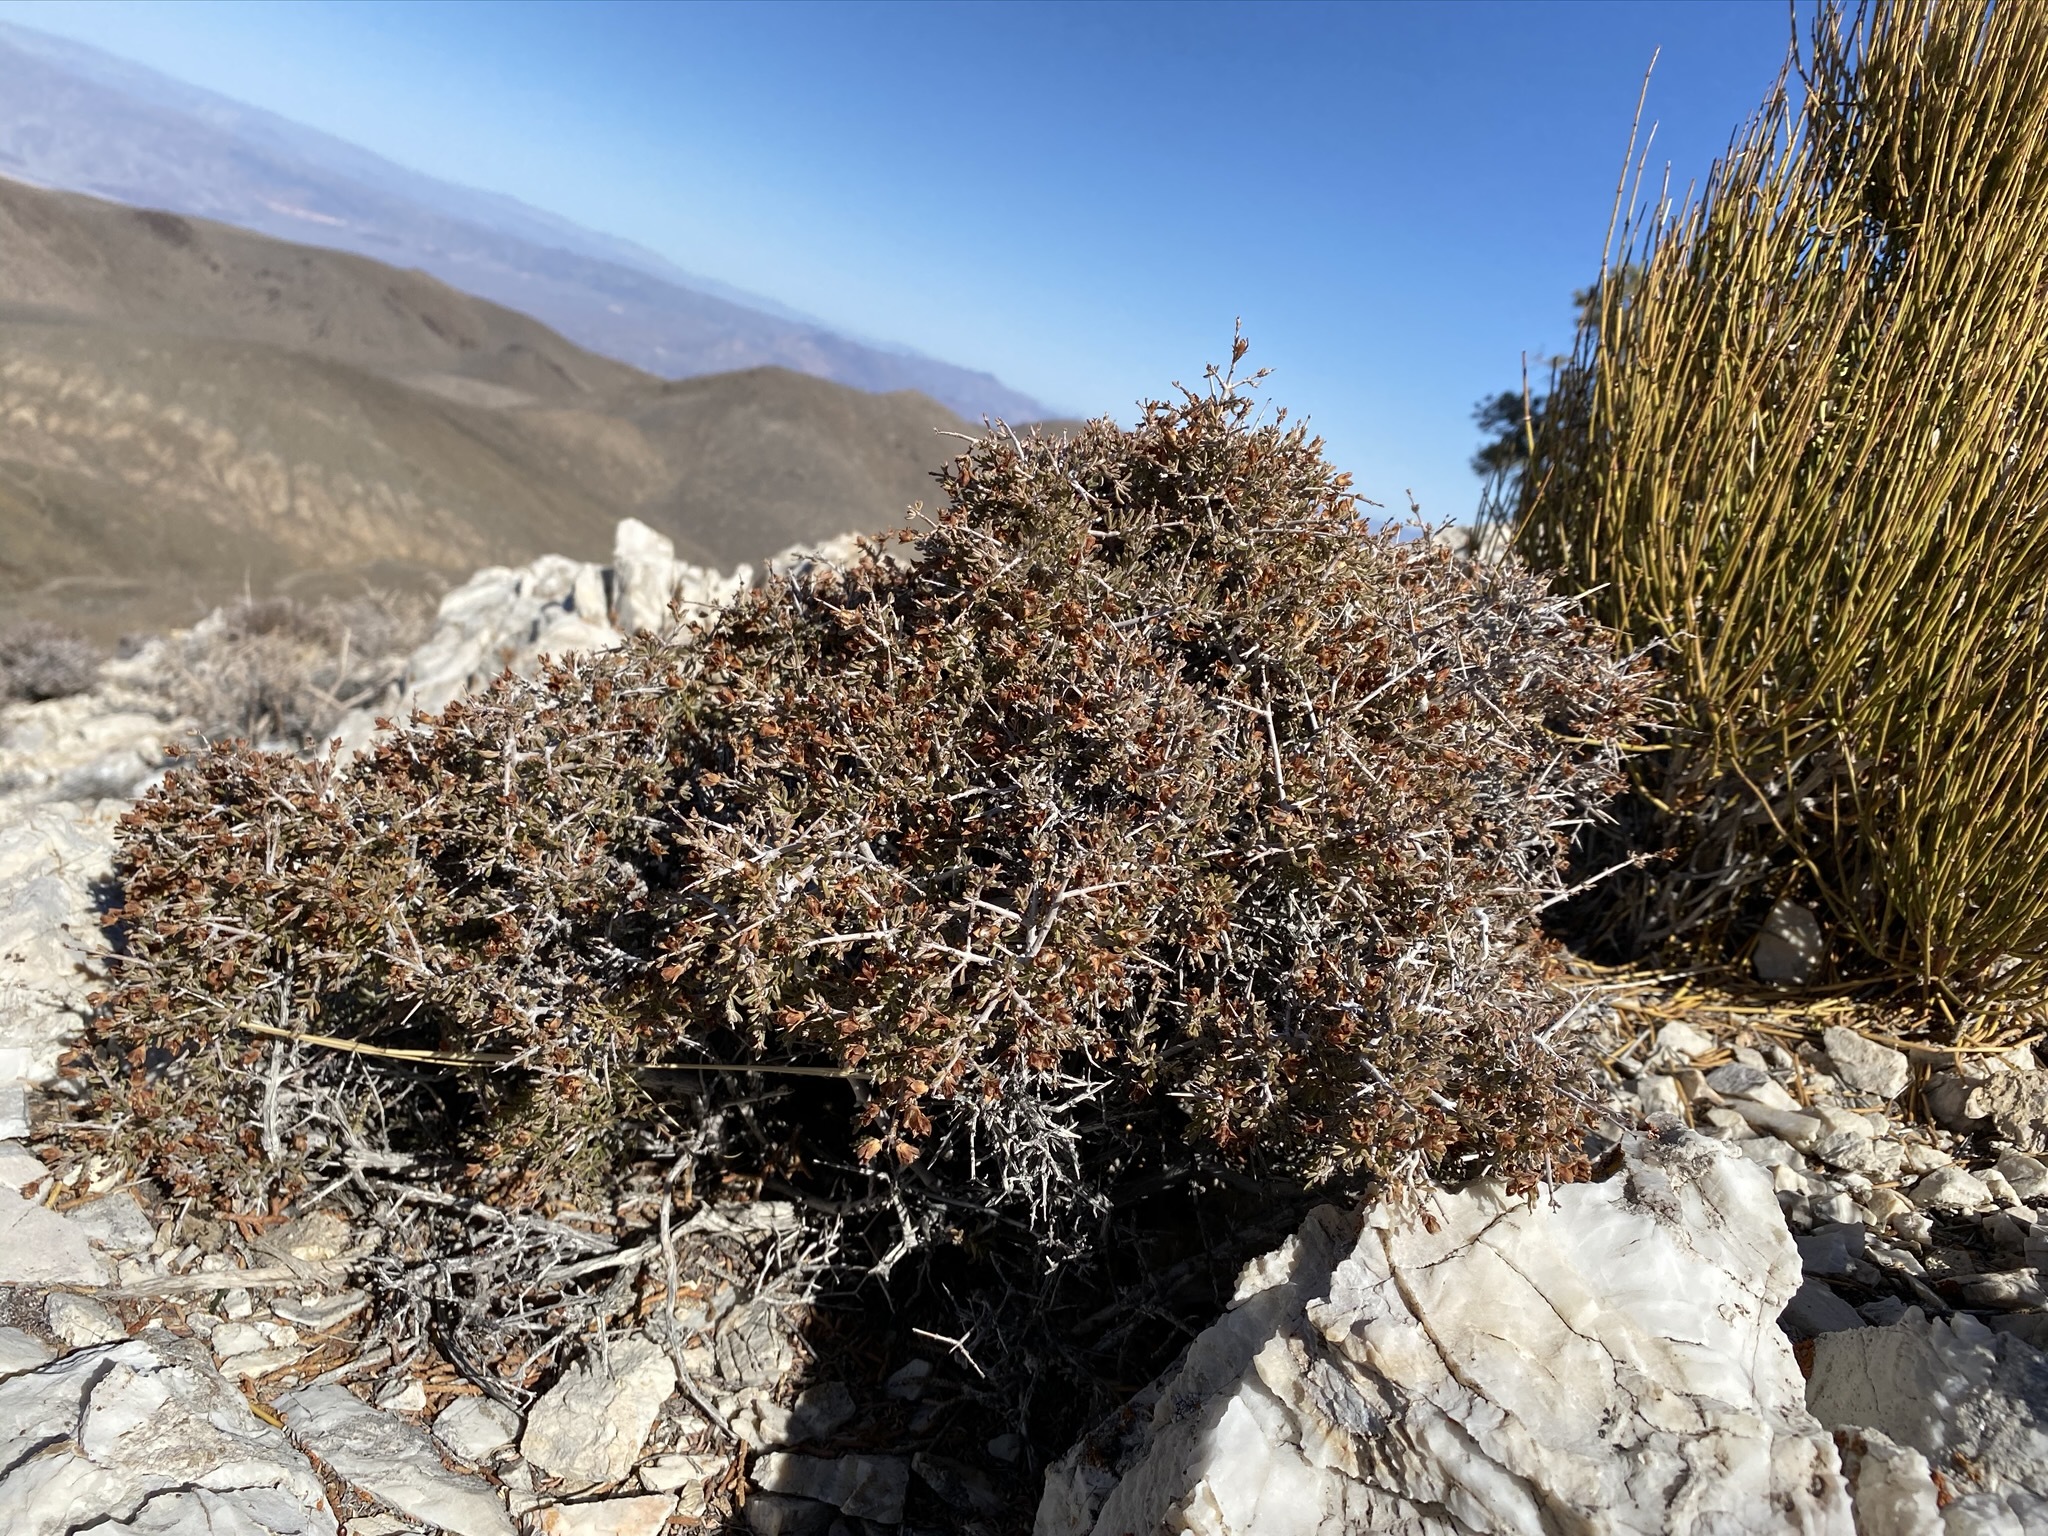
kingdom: Plantae
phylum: Tracheophyta
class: Magnoliopsida
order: Rosales
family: Rosaceae
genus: Coleogyne
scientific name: Coleogyne ramosissima
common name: Blackbrush
